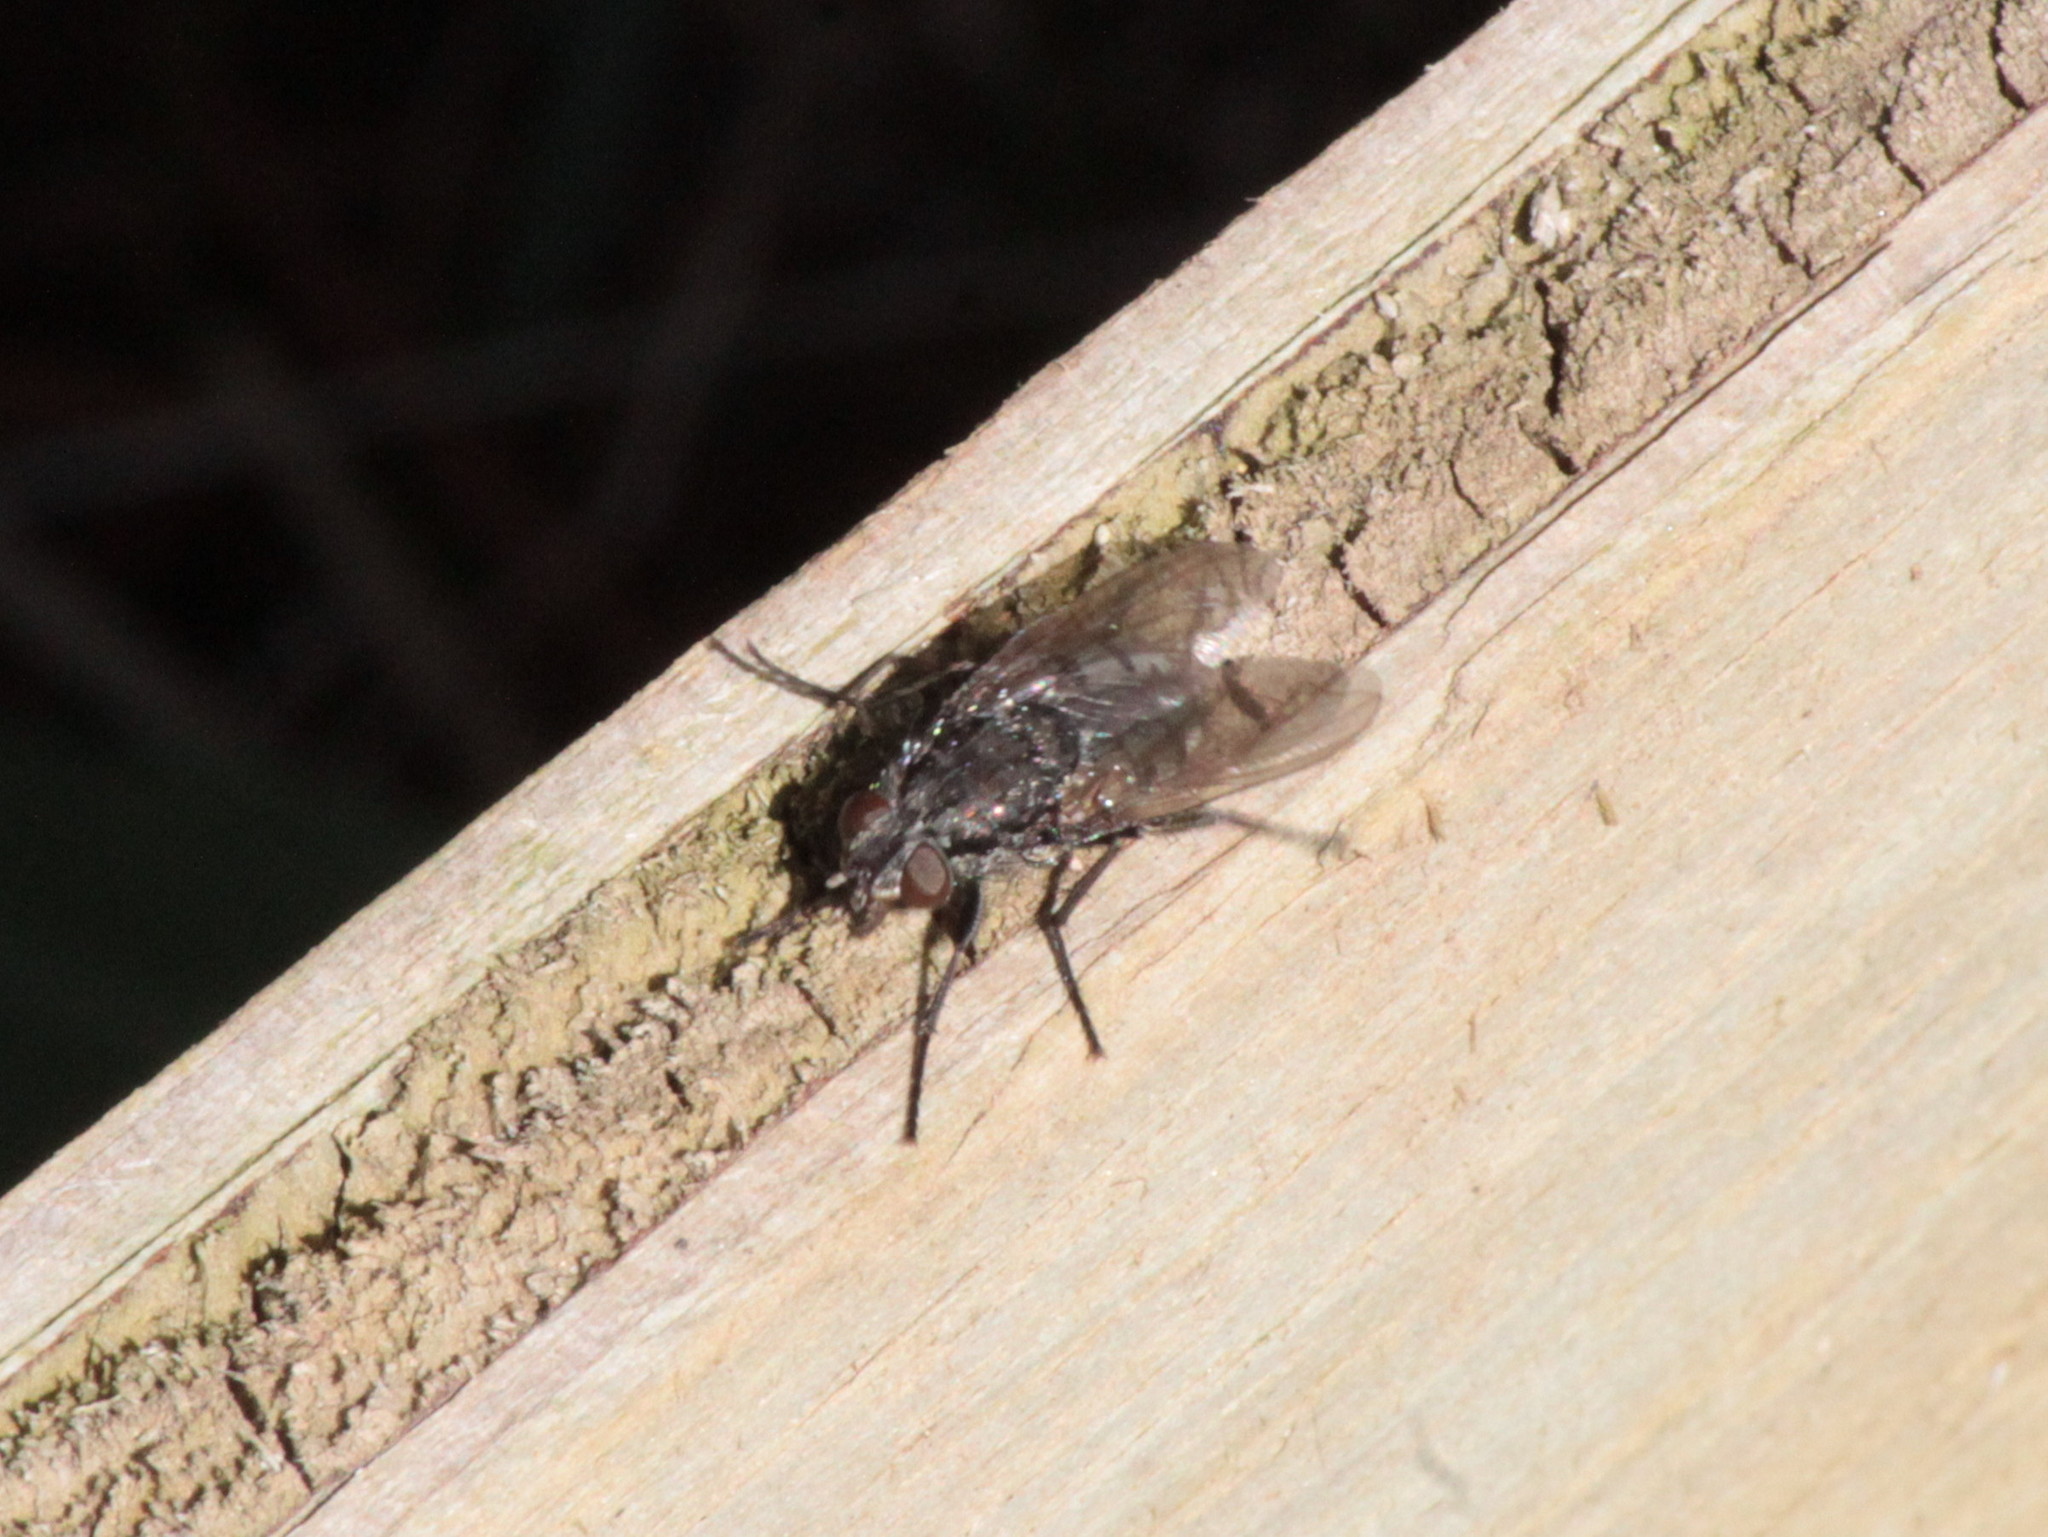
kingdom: Animalia
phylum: Arthropoda
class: Insecta
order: Diptera
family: Polleniidae
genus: Pollenia
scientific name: Pollenia vagabunda
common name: Vagabund cluster fly
